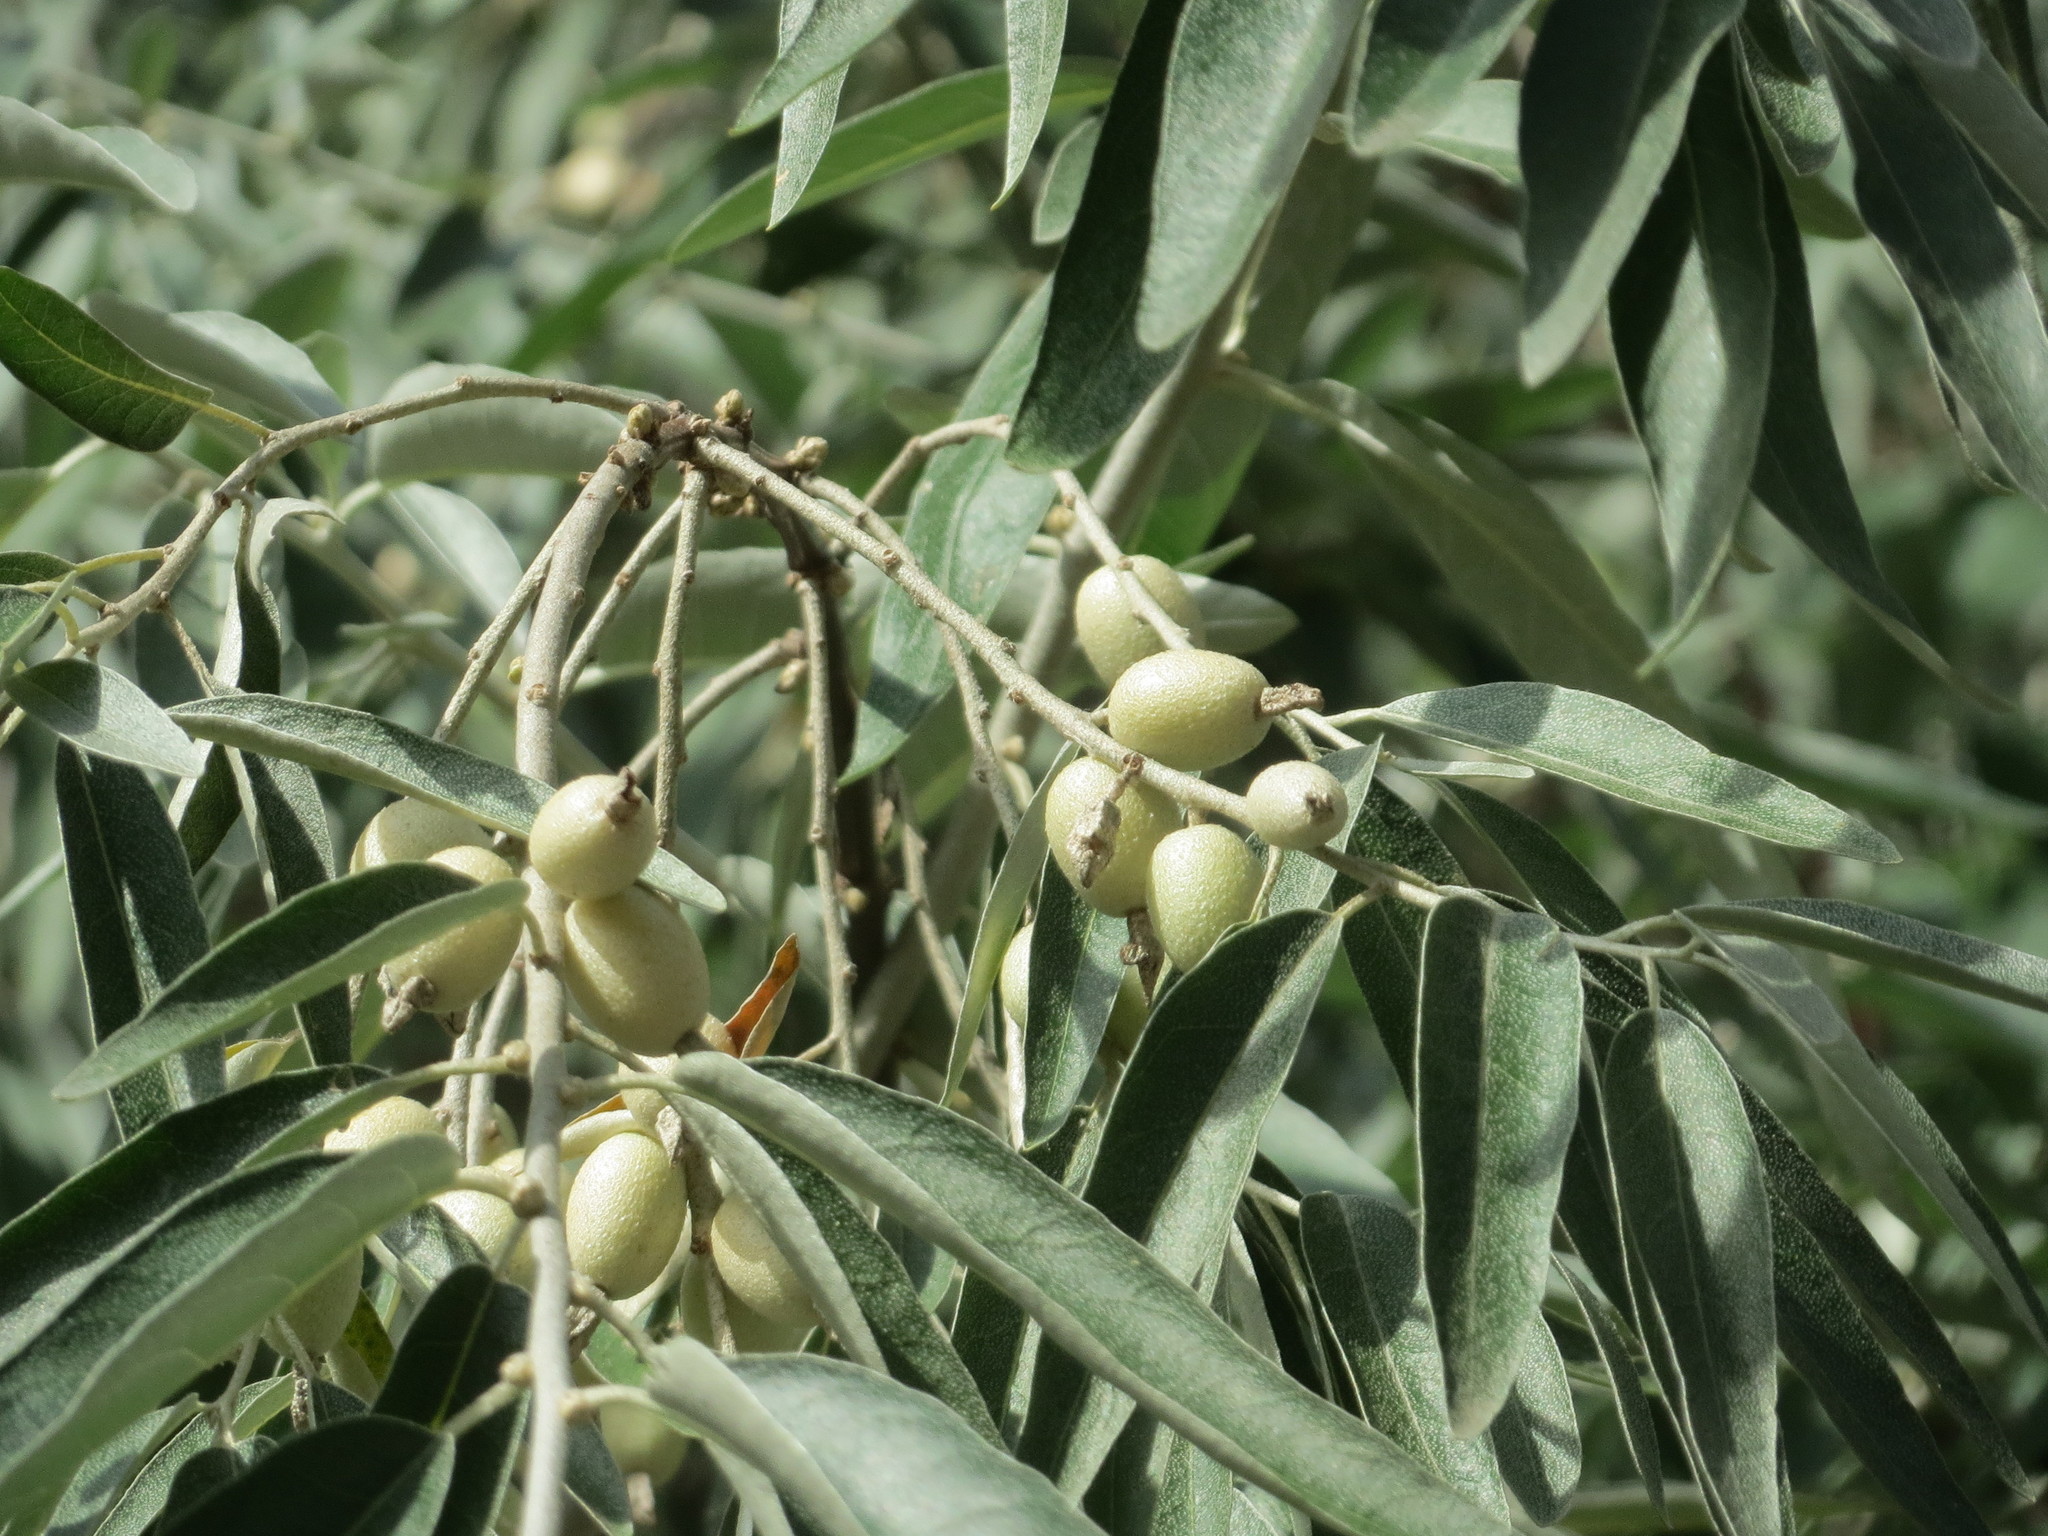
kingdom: Plantae
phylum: Tracheophyta
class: Magnoliopsida
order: Rosales
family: Elaeagnaceae
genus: Elaeagnus
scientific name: Elaeagnus angustifolia
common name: Russian olive
